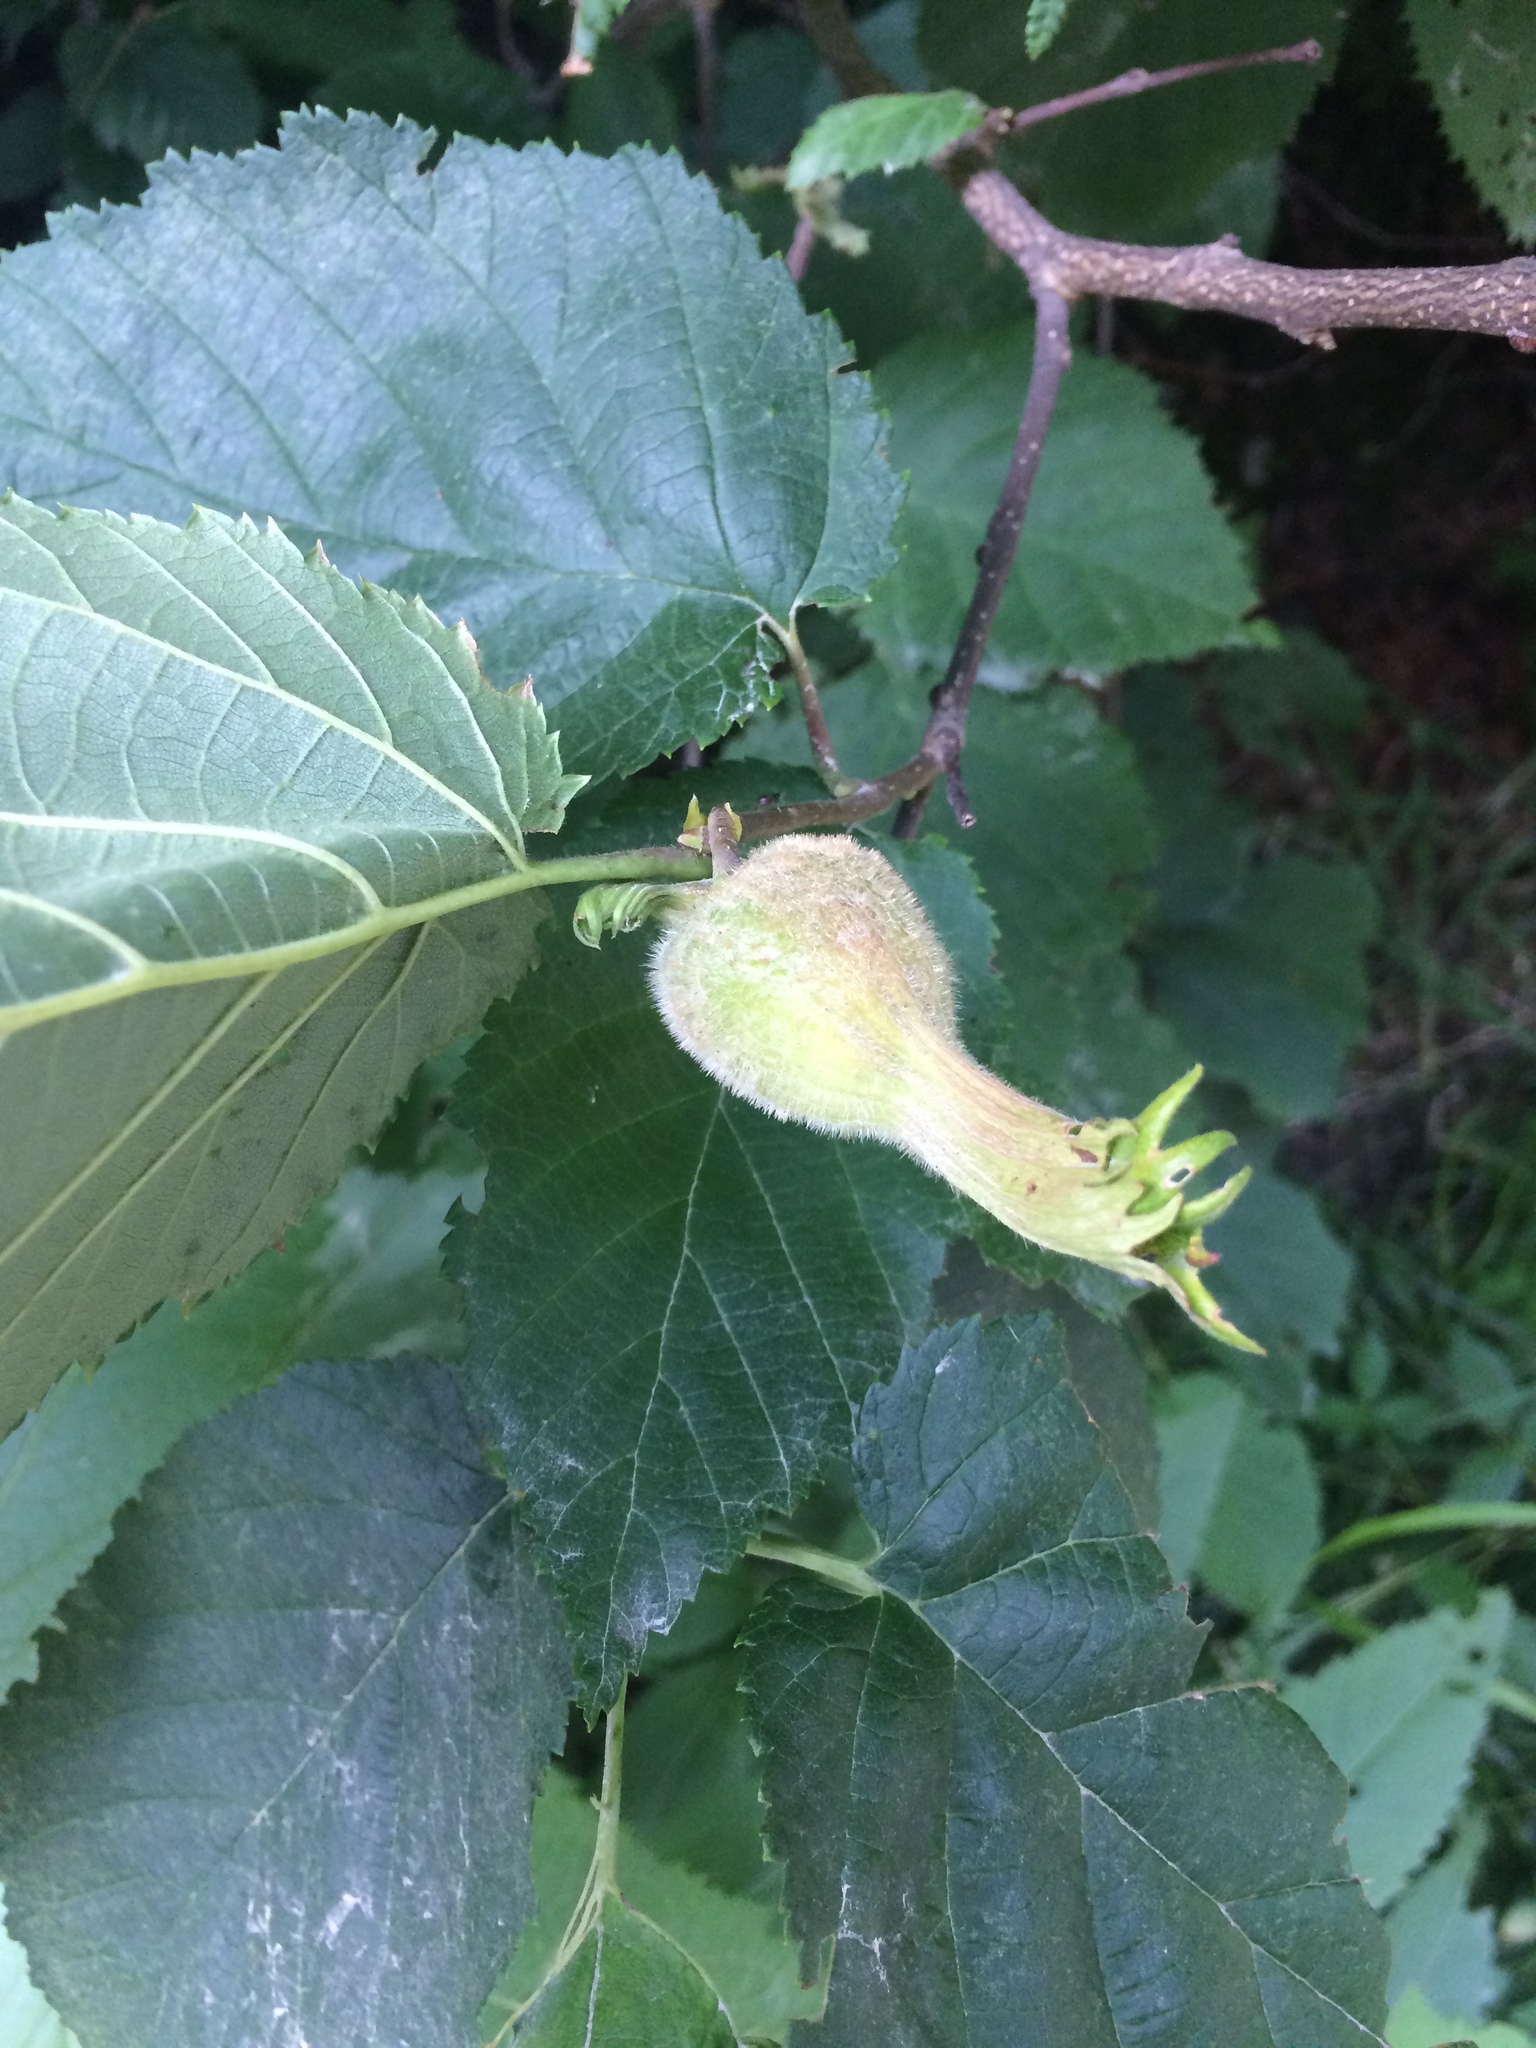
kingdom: Plantae
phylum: Tracheophyta
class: Magnoliopsida
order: Fagales
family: Betulaceae
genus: Corylus
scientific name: Corylus cornuta
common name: Beaked hazel
